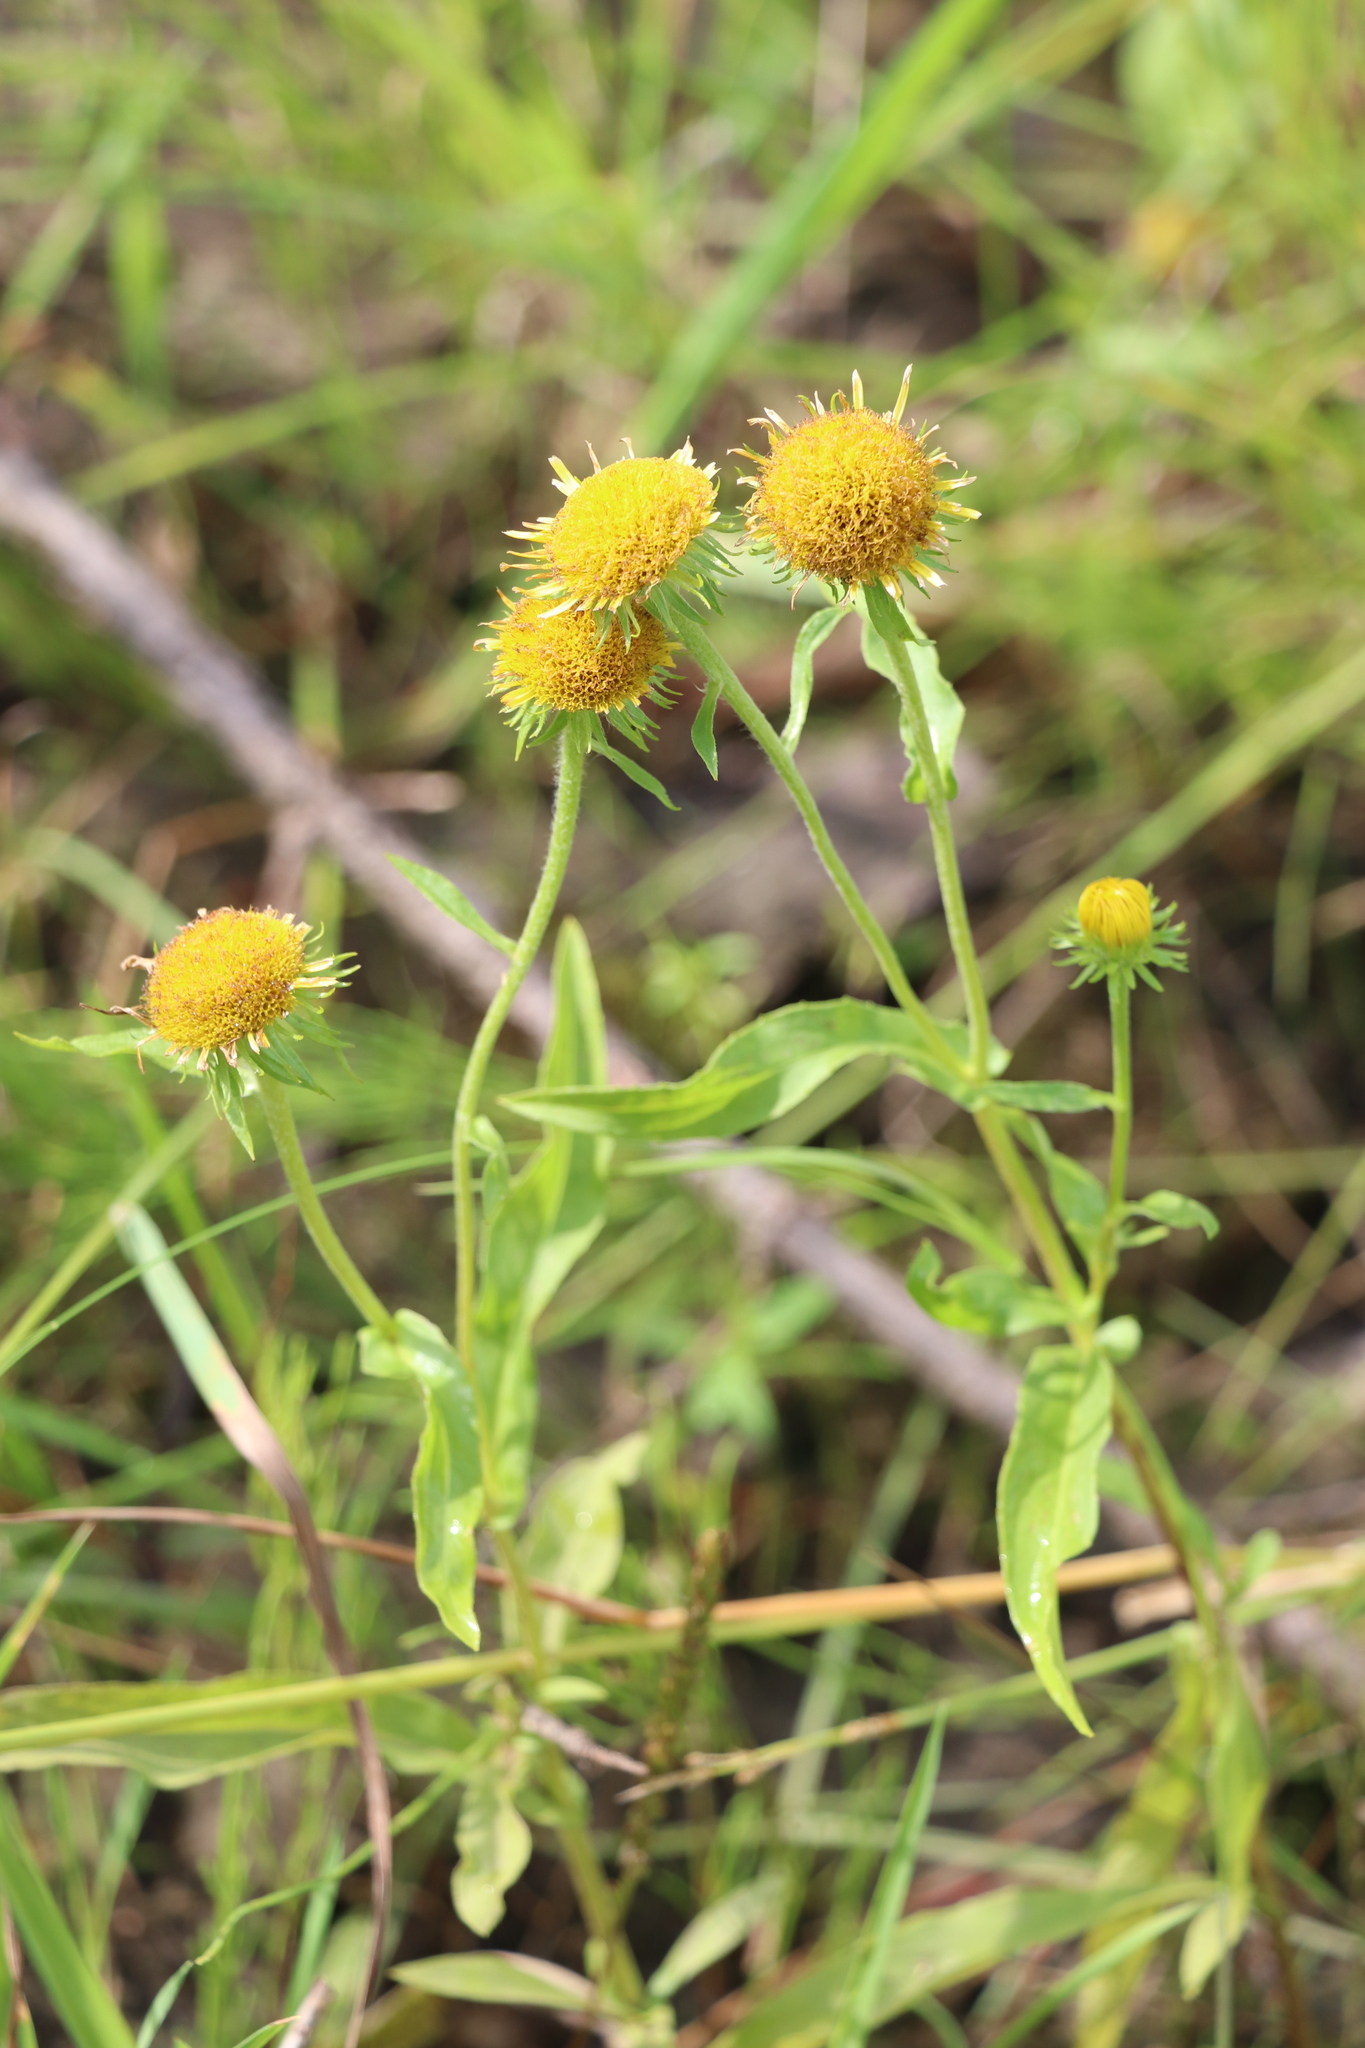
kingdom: Plantae
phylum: Tracheophyta
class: Magnoliopsida
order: Asterales
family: Asteraceae
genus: Pentanema
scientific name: Pentanema britannicum
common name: British elecampane
